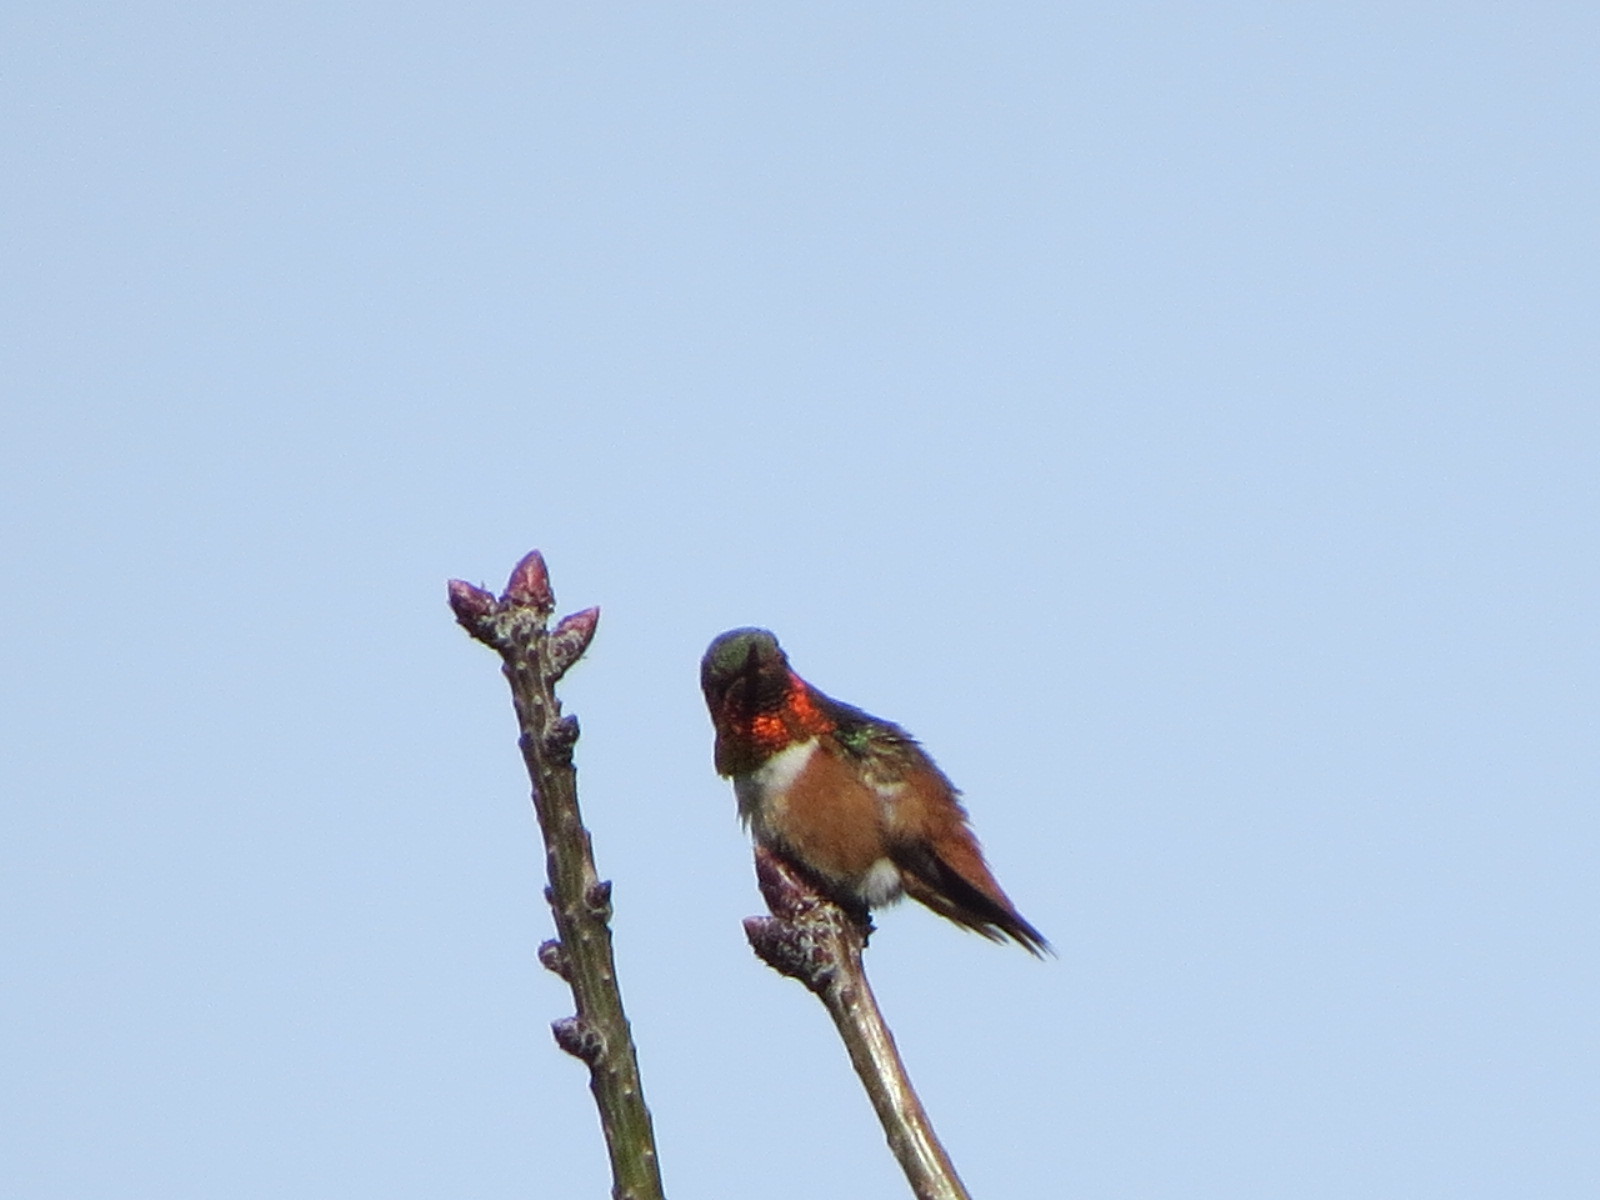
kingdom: Animalia
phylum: Chordata
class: Aves
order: Apodiformes
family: Trochilidae
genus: Selasphorus
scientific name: Selasphorus sasin
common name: Allen's hummingbird
